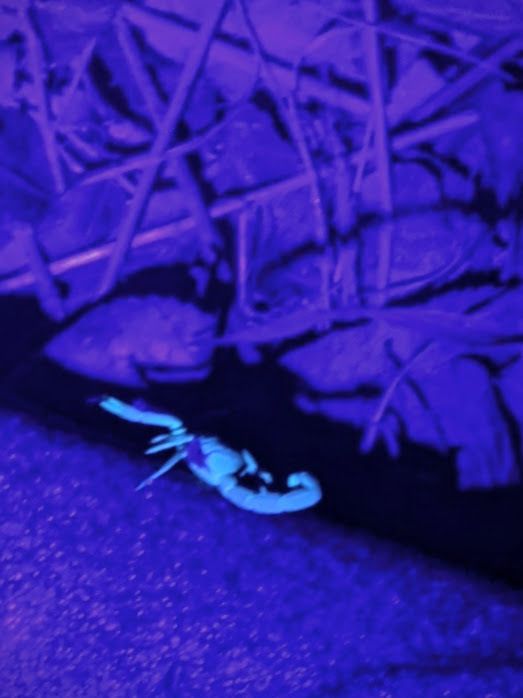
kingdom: Animalia
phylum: Arthropoda
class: Arachnida
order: Scorpiones
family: Buthidae
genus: Centruroides
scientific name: Centruroides vittatus
